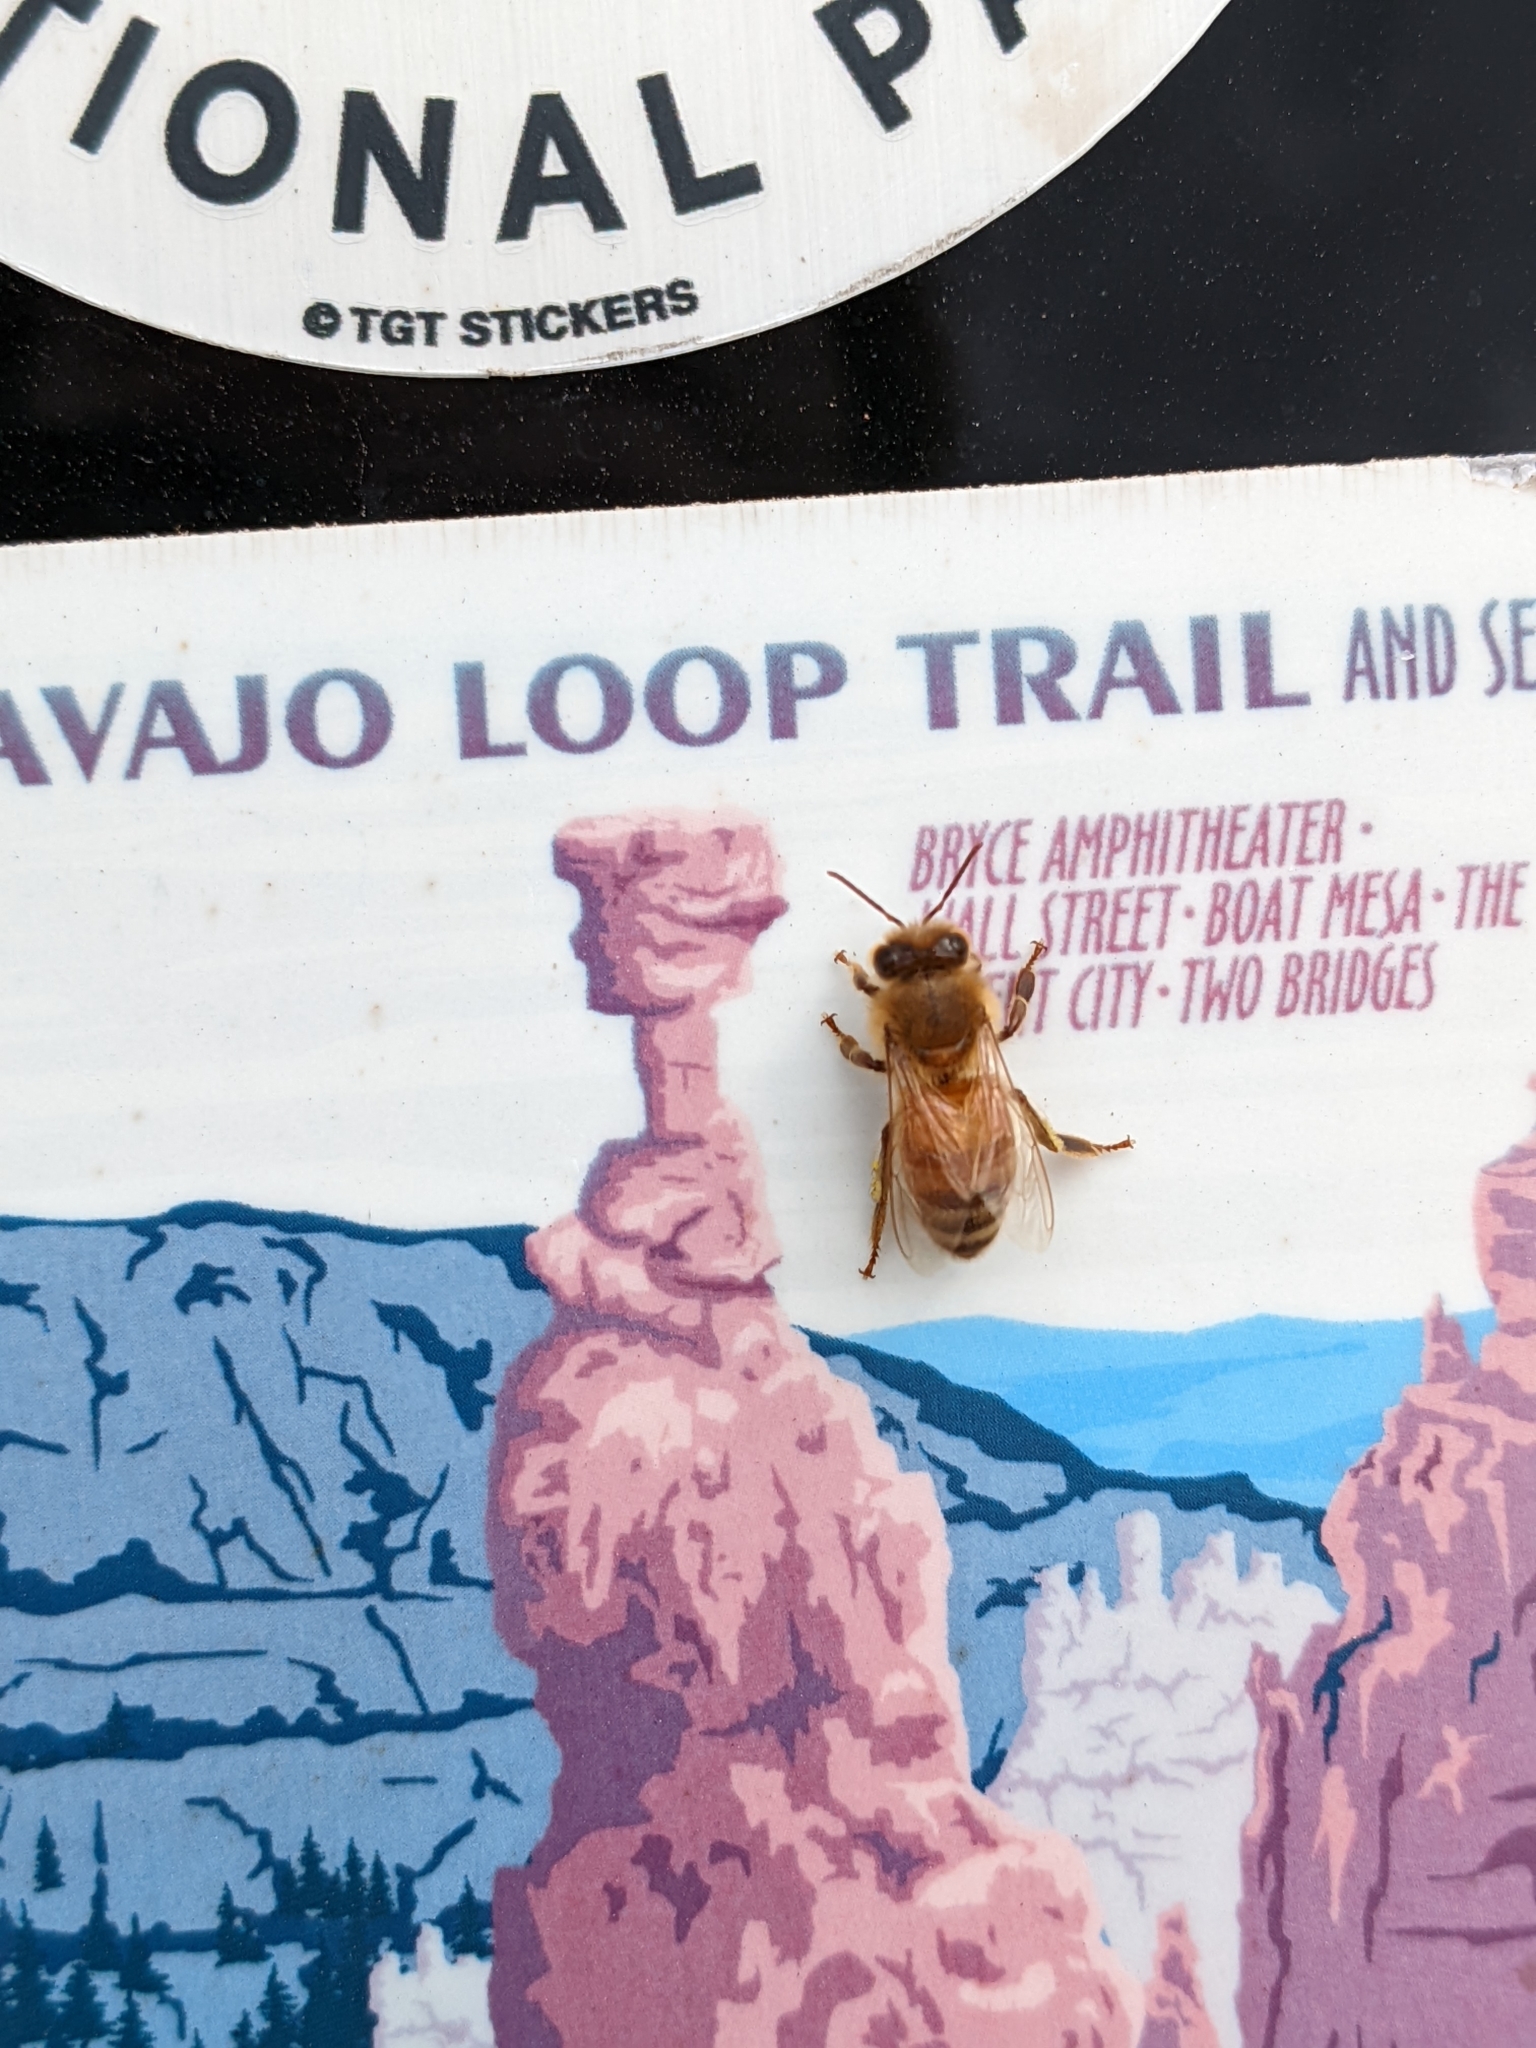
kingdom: Animalia
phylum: Arthropoda
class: Insecta
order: Hymenoptera
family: Apidae
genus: Apis
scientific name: Apis mellifera
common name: Honey bee
